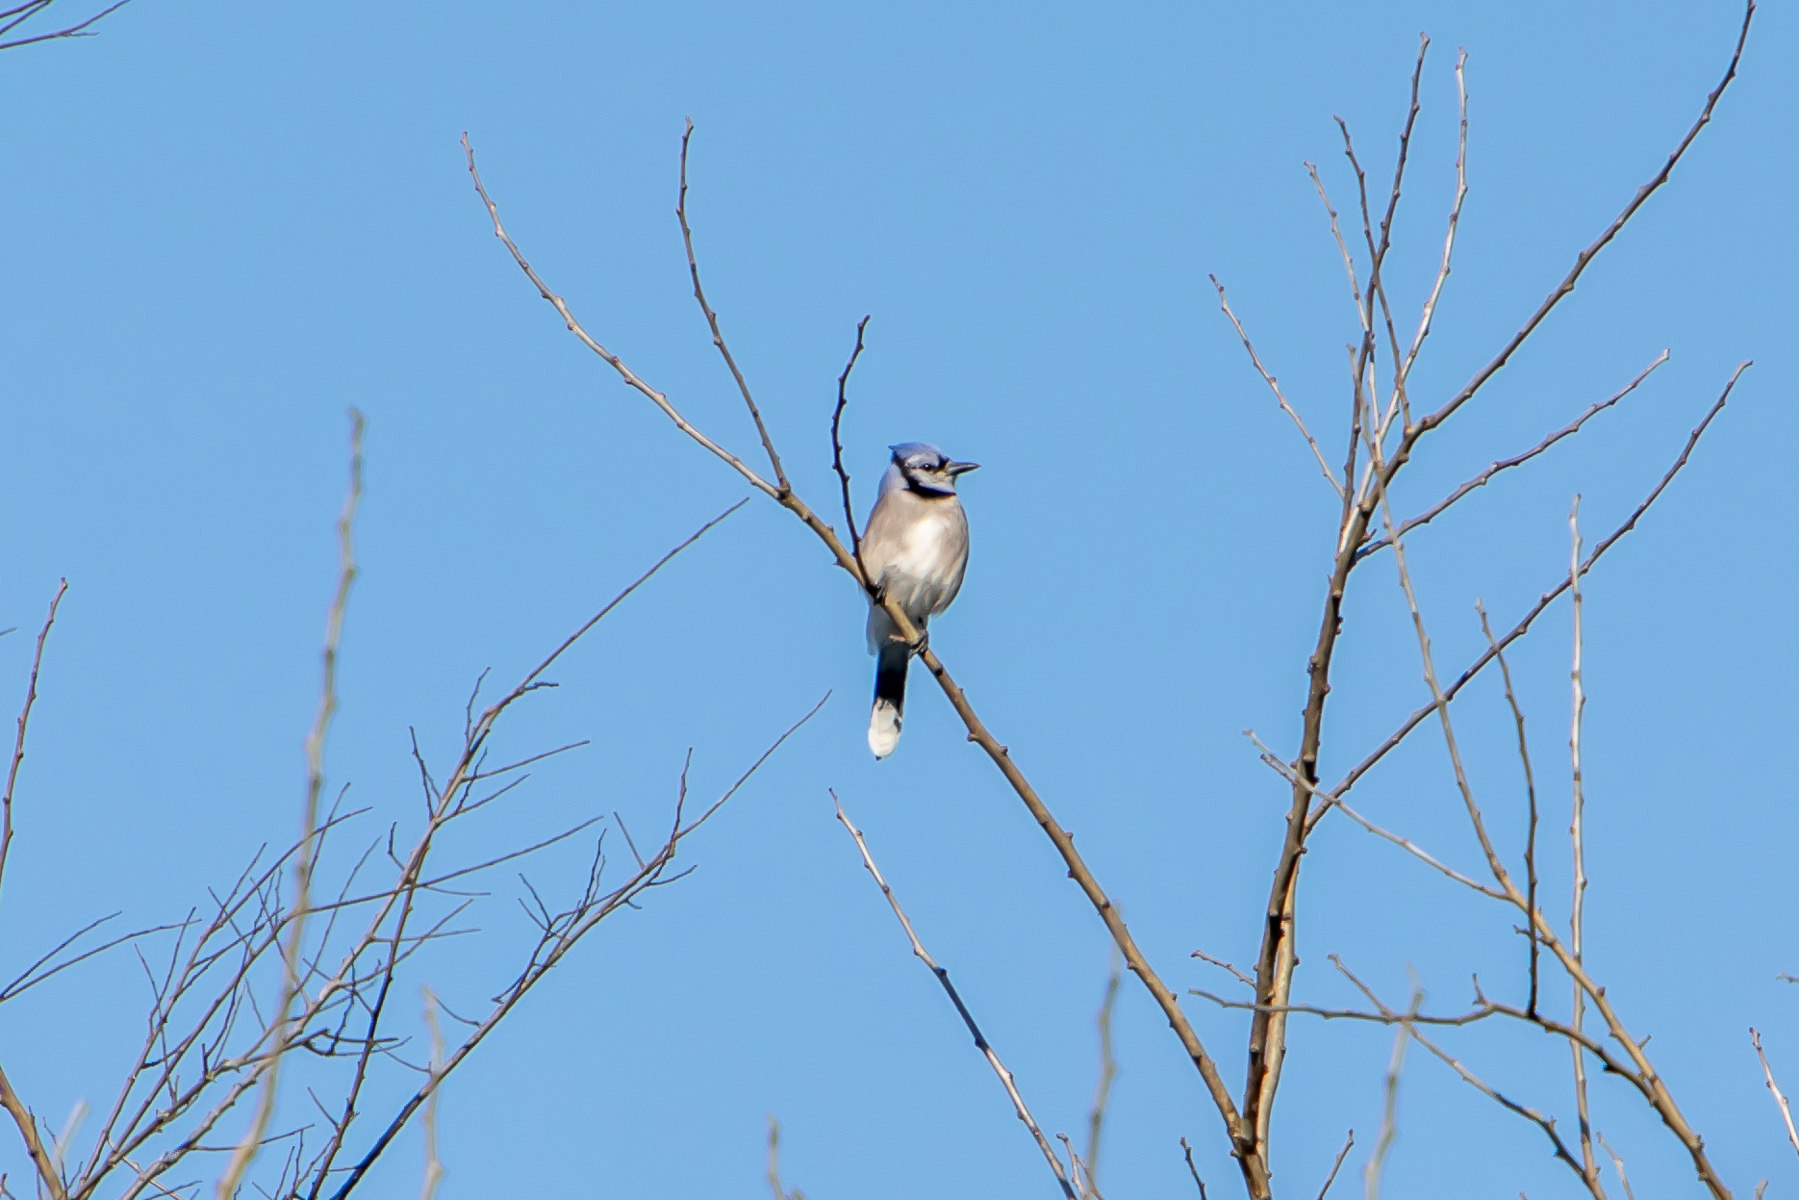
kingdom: Animalia
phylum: Chordata
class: Aves
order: Passeriformes
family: Corvidae
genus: Cyanocitta
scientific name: Cyanocitta cristata
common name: Blue jay
